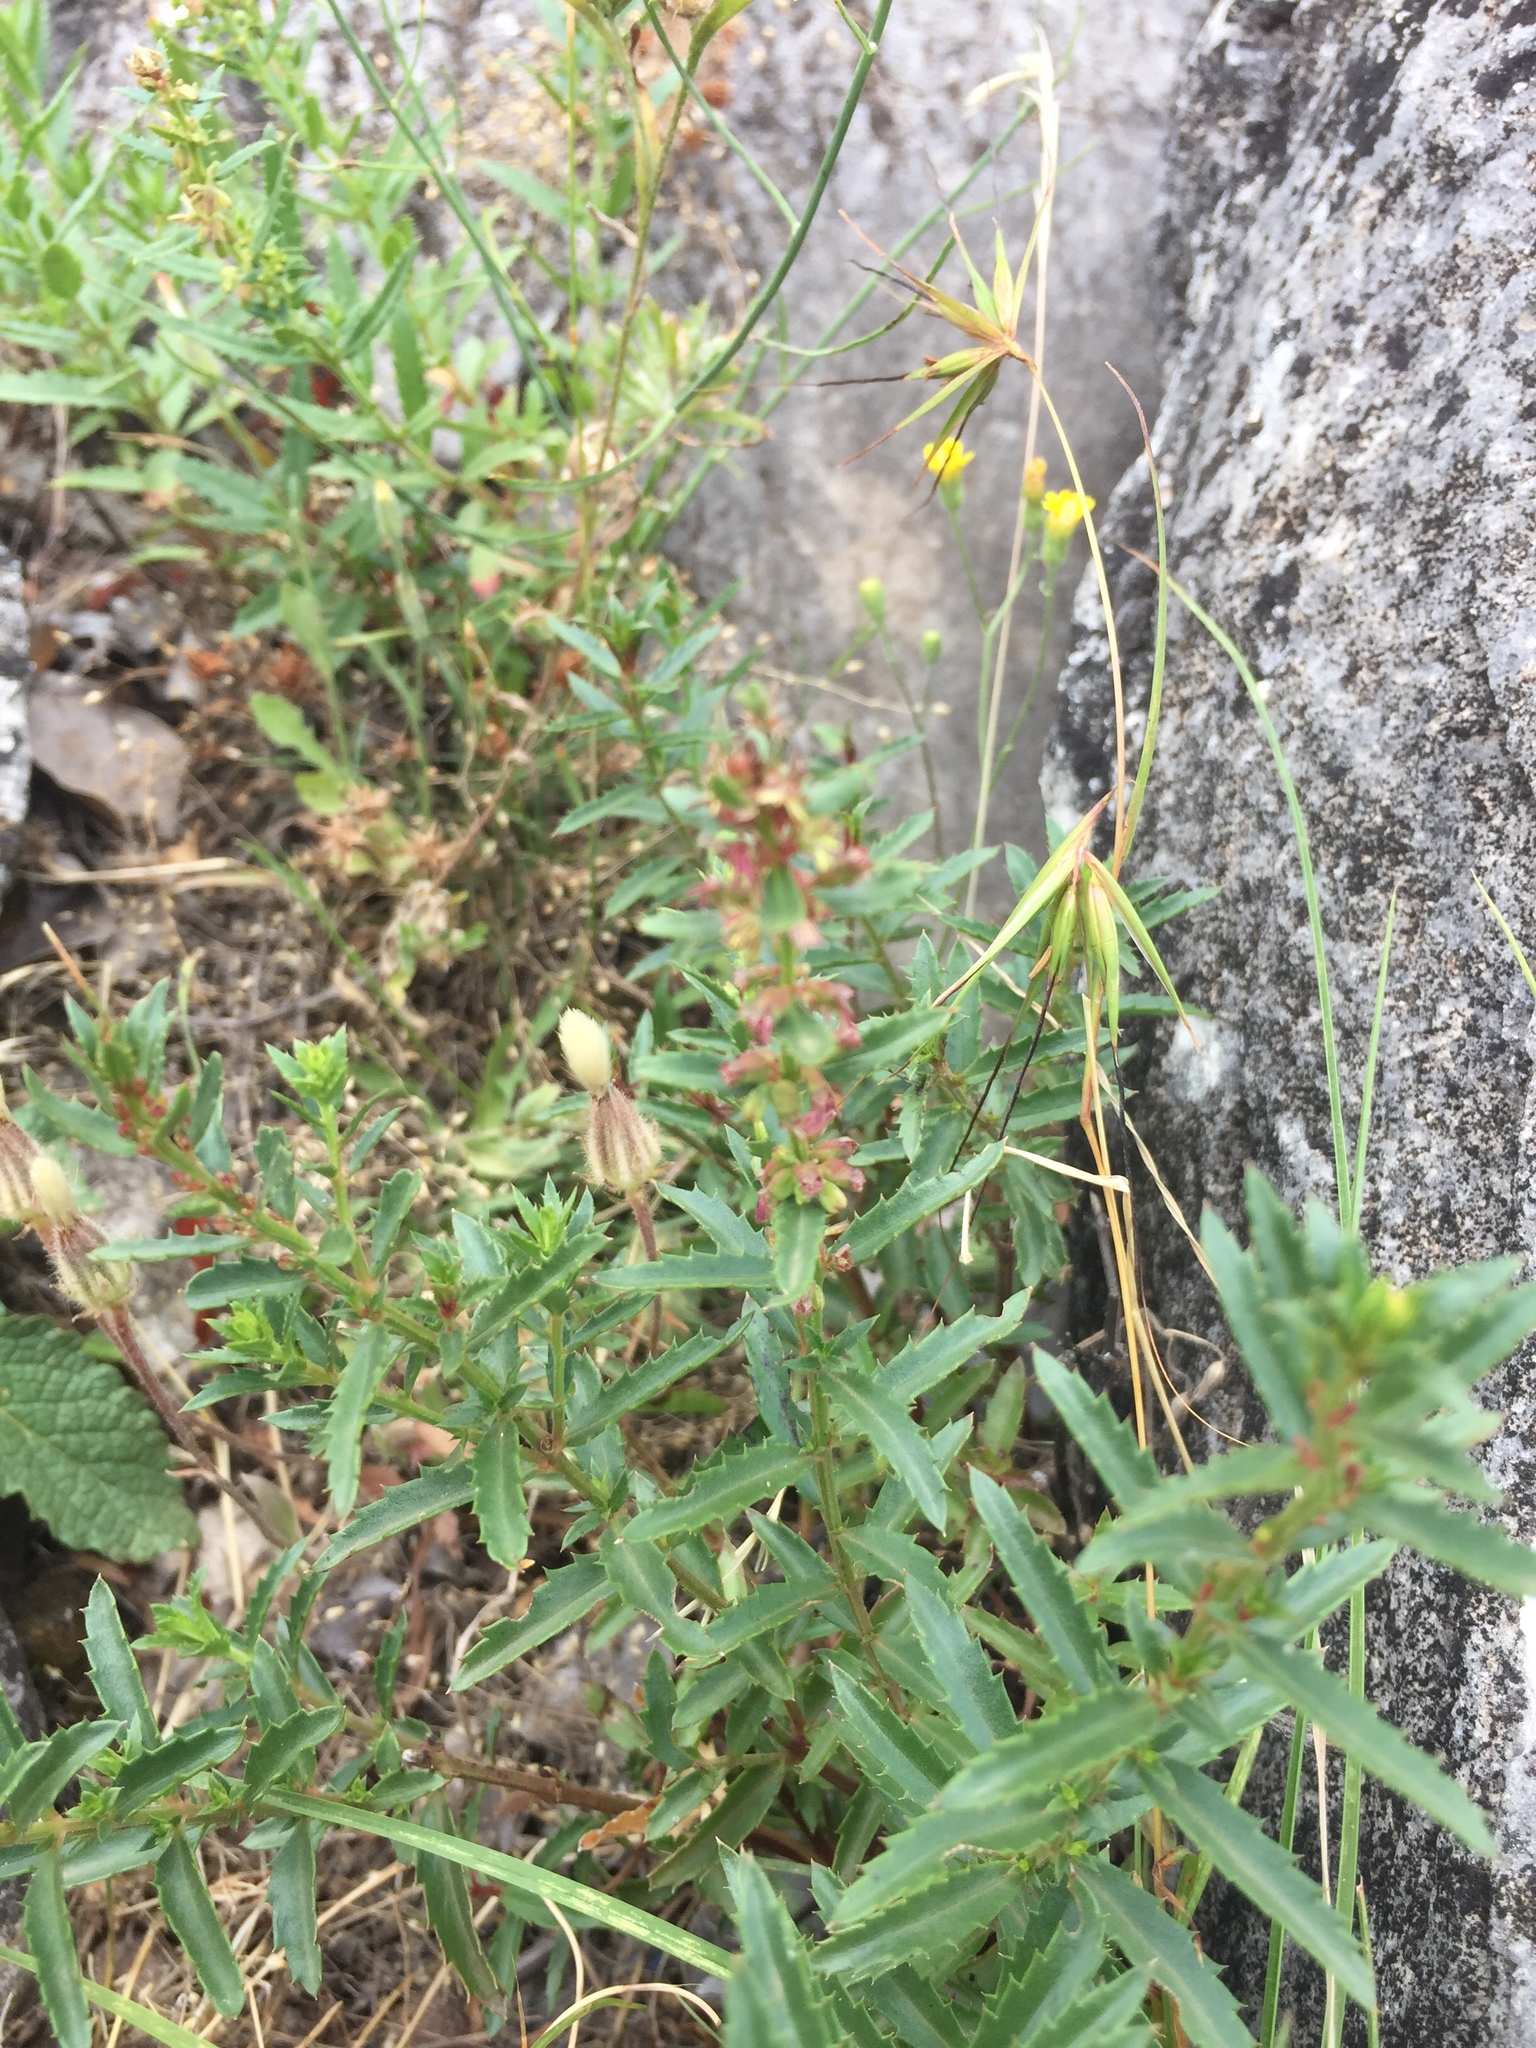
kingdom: Plantae
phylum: Tracheophyta
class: Magnoliopsida
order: Saxifragales
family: Haloragaceae
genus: Haloragis
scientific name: Haloragis serra
